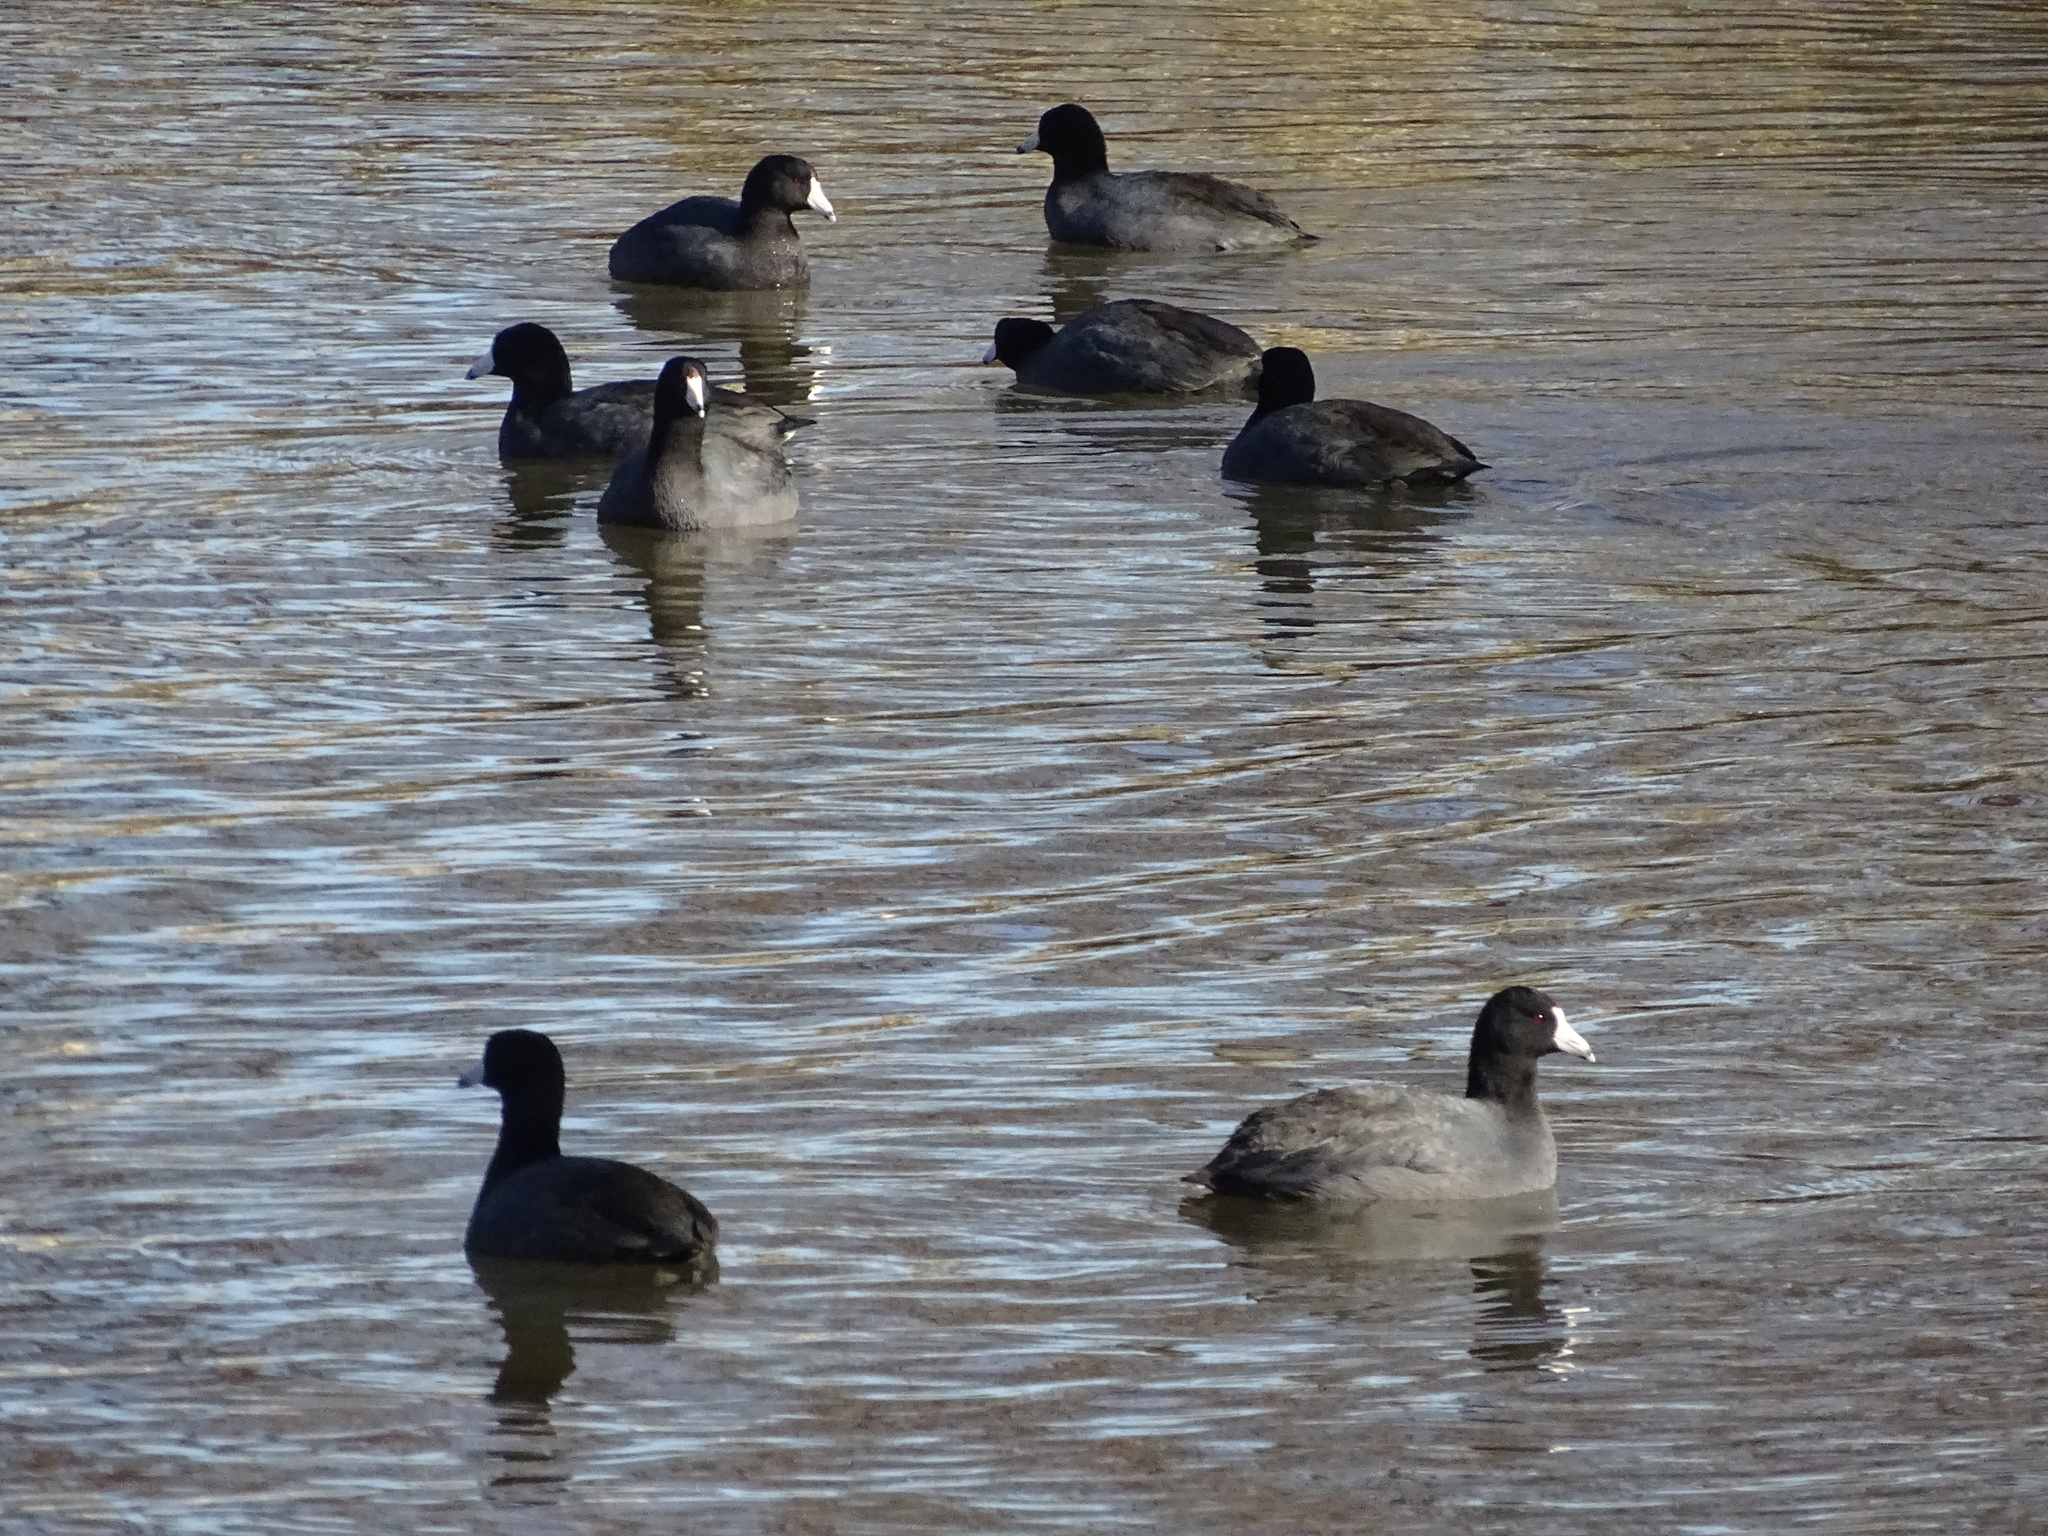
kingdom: Animalia
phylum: Chordata
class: Aves
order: Gruiformes
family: Rallidae
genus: Fulica
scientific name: Fulica americana
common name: American coot
